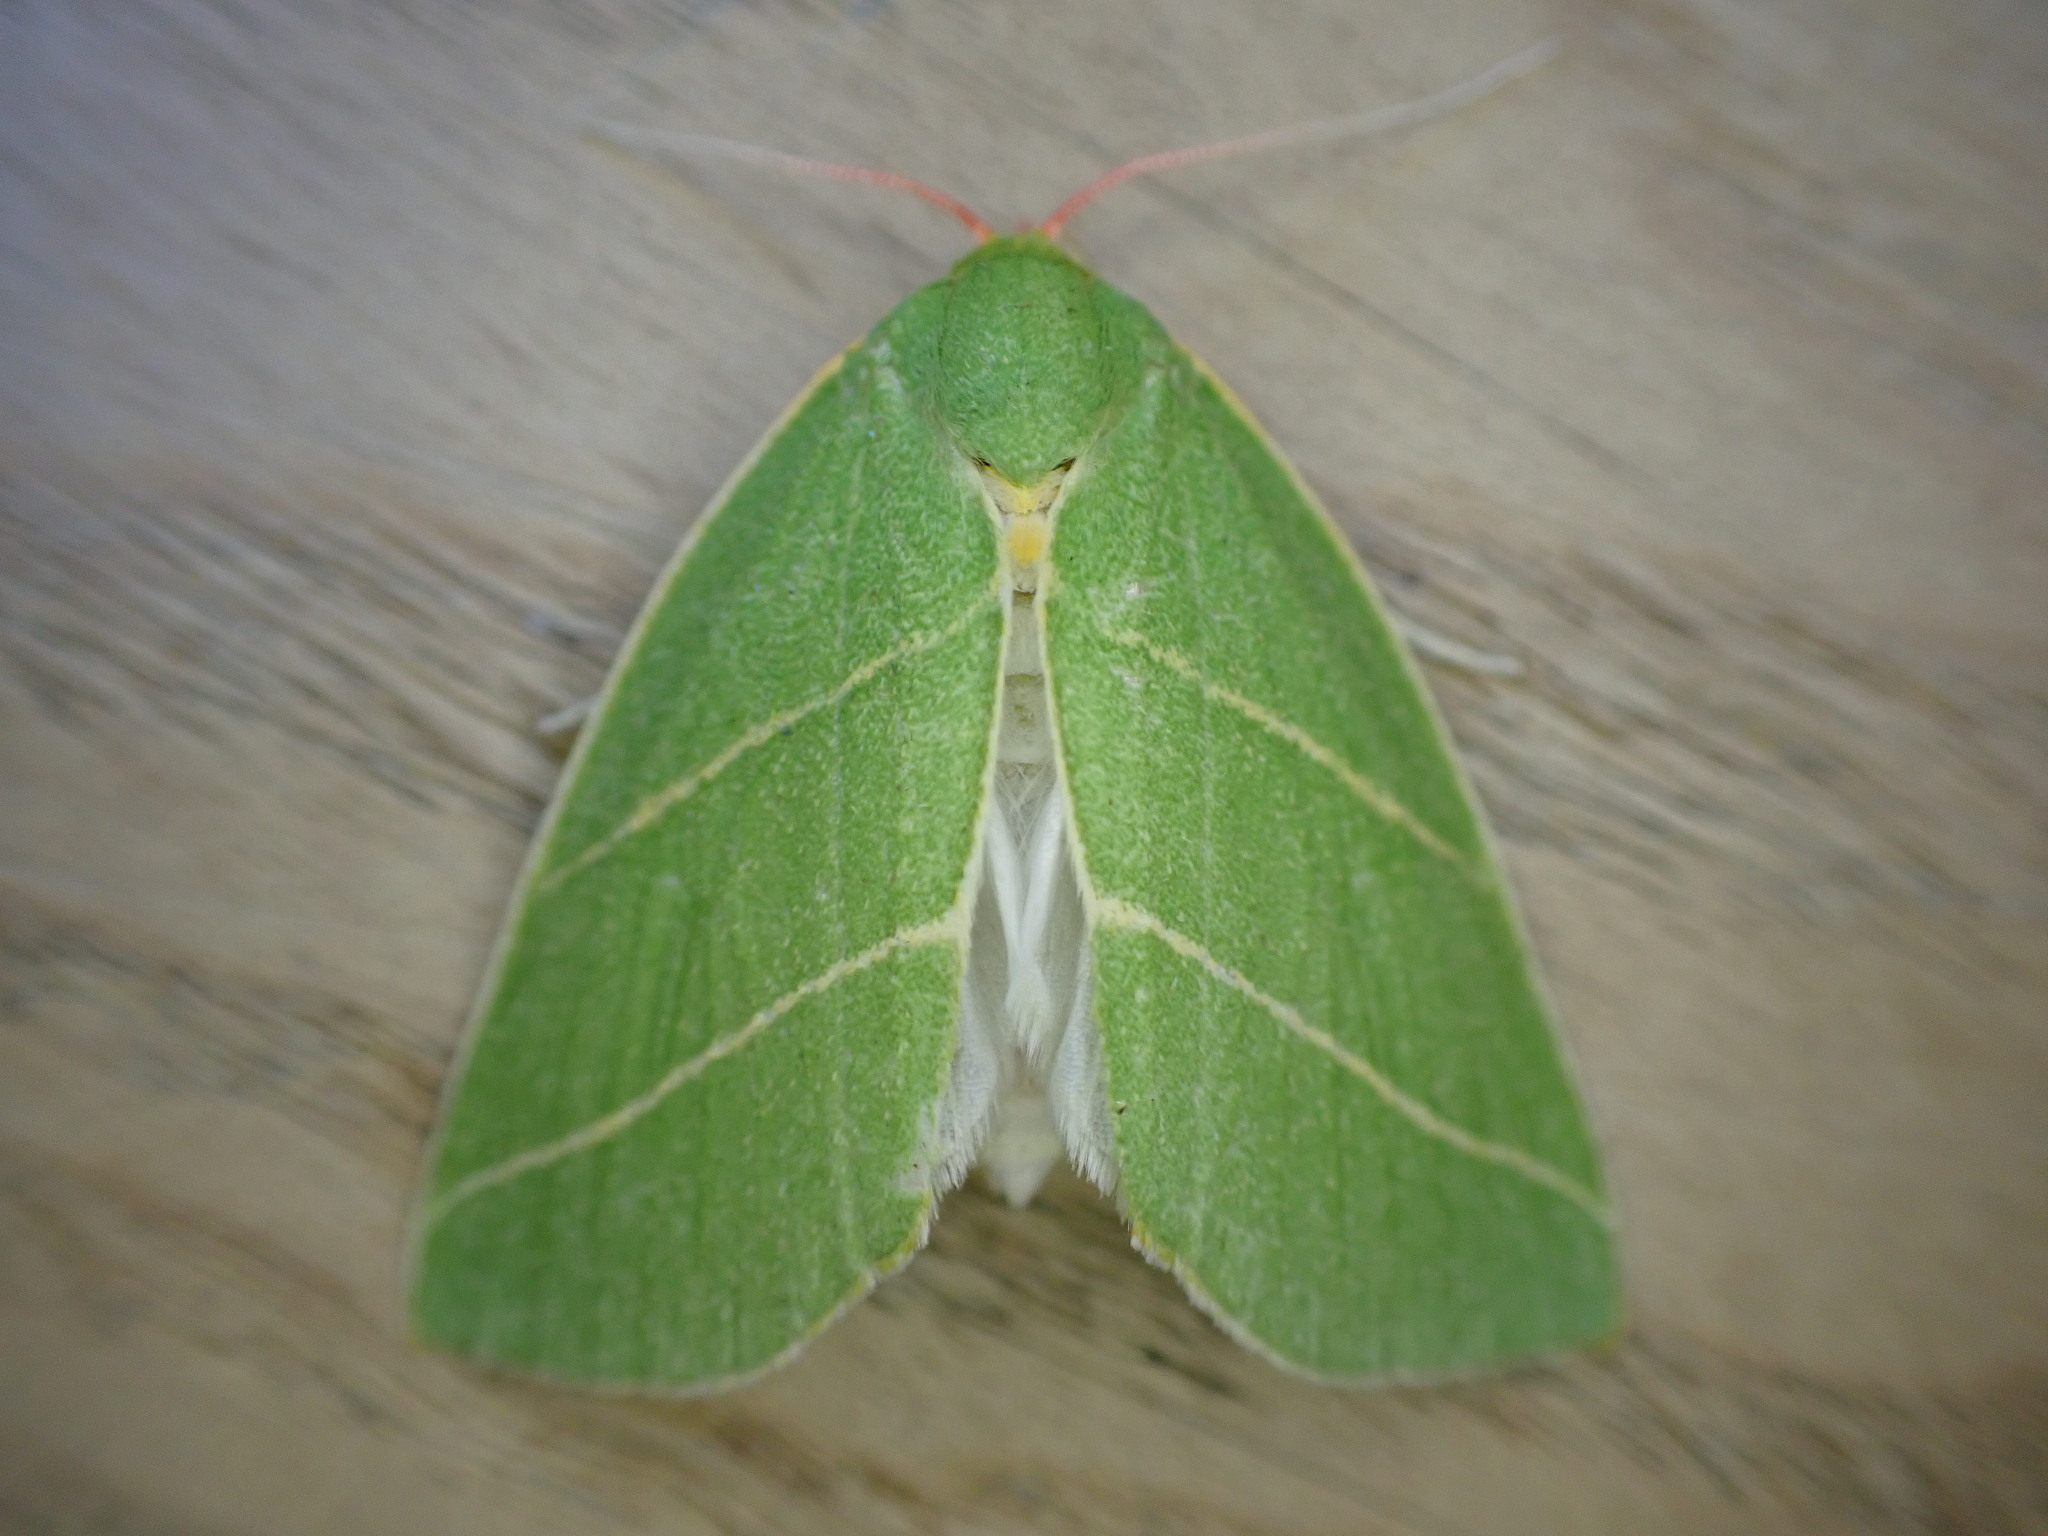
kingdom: Animalia
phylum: Arthropoda
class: Insecta
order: Lepidoptera
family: Nolidae
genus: Bena
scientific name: Bena bicolorana
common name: Scarce silver-lines
